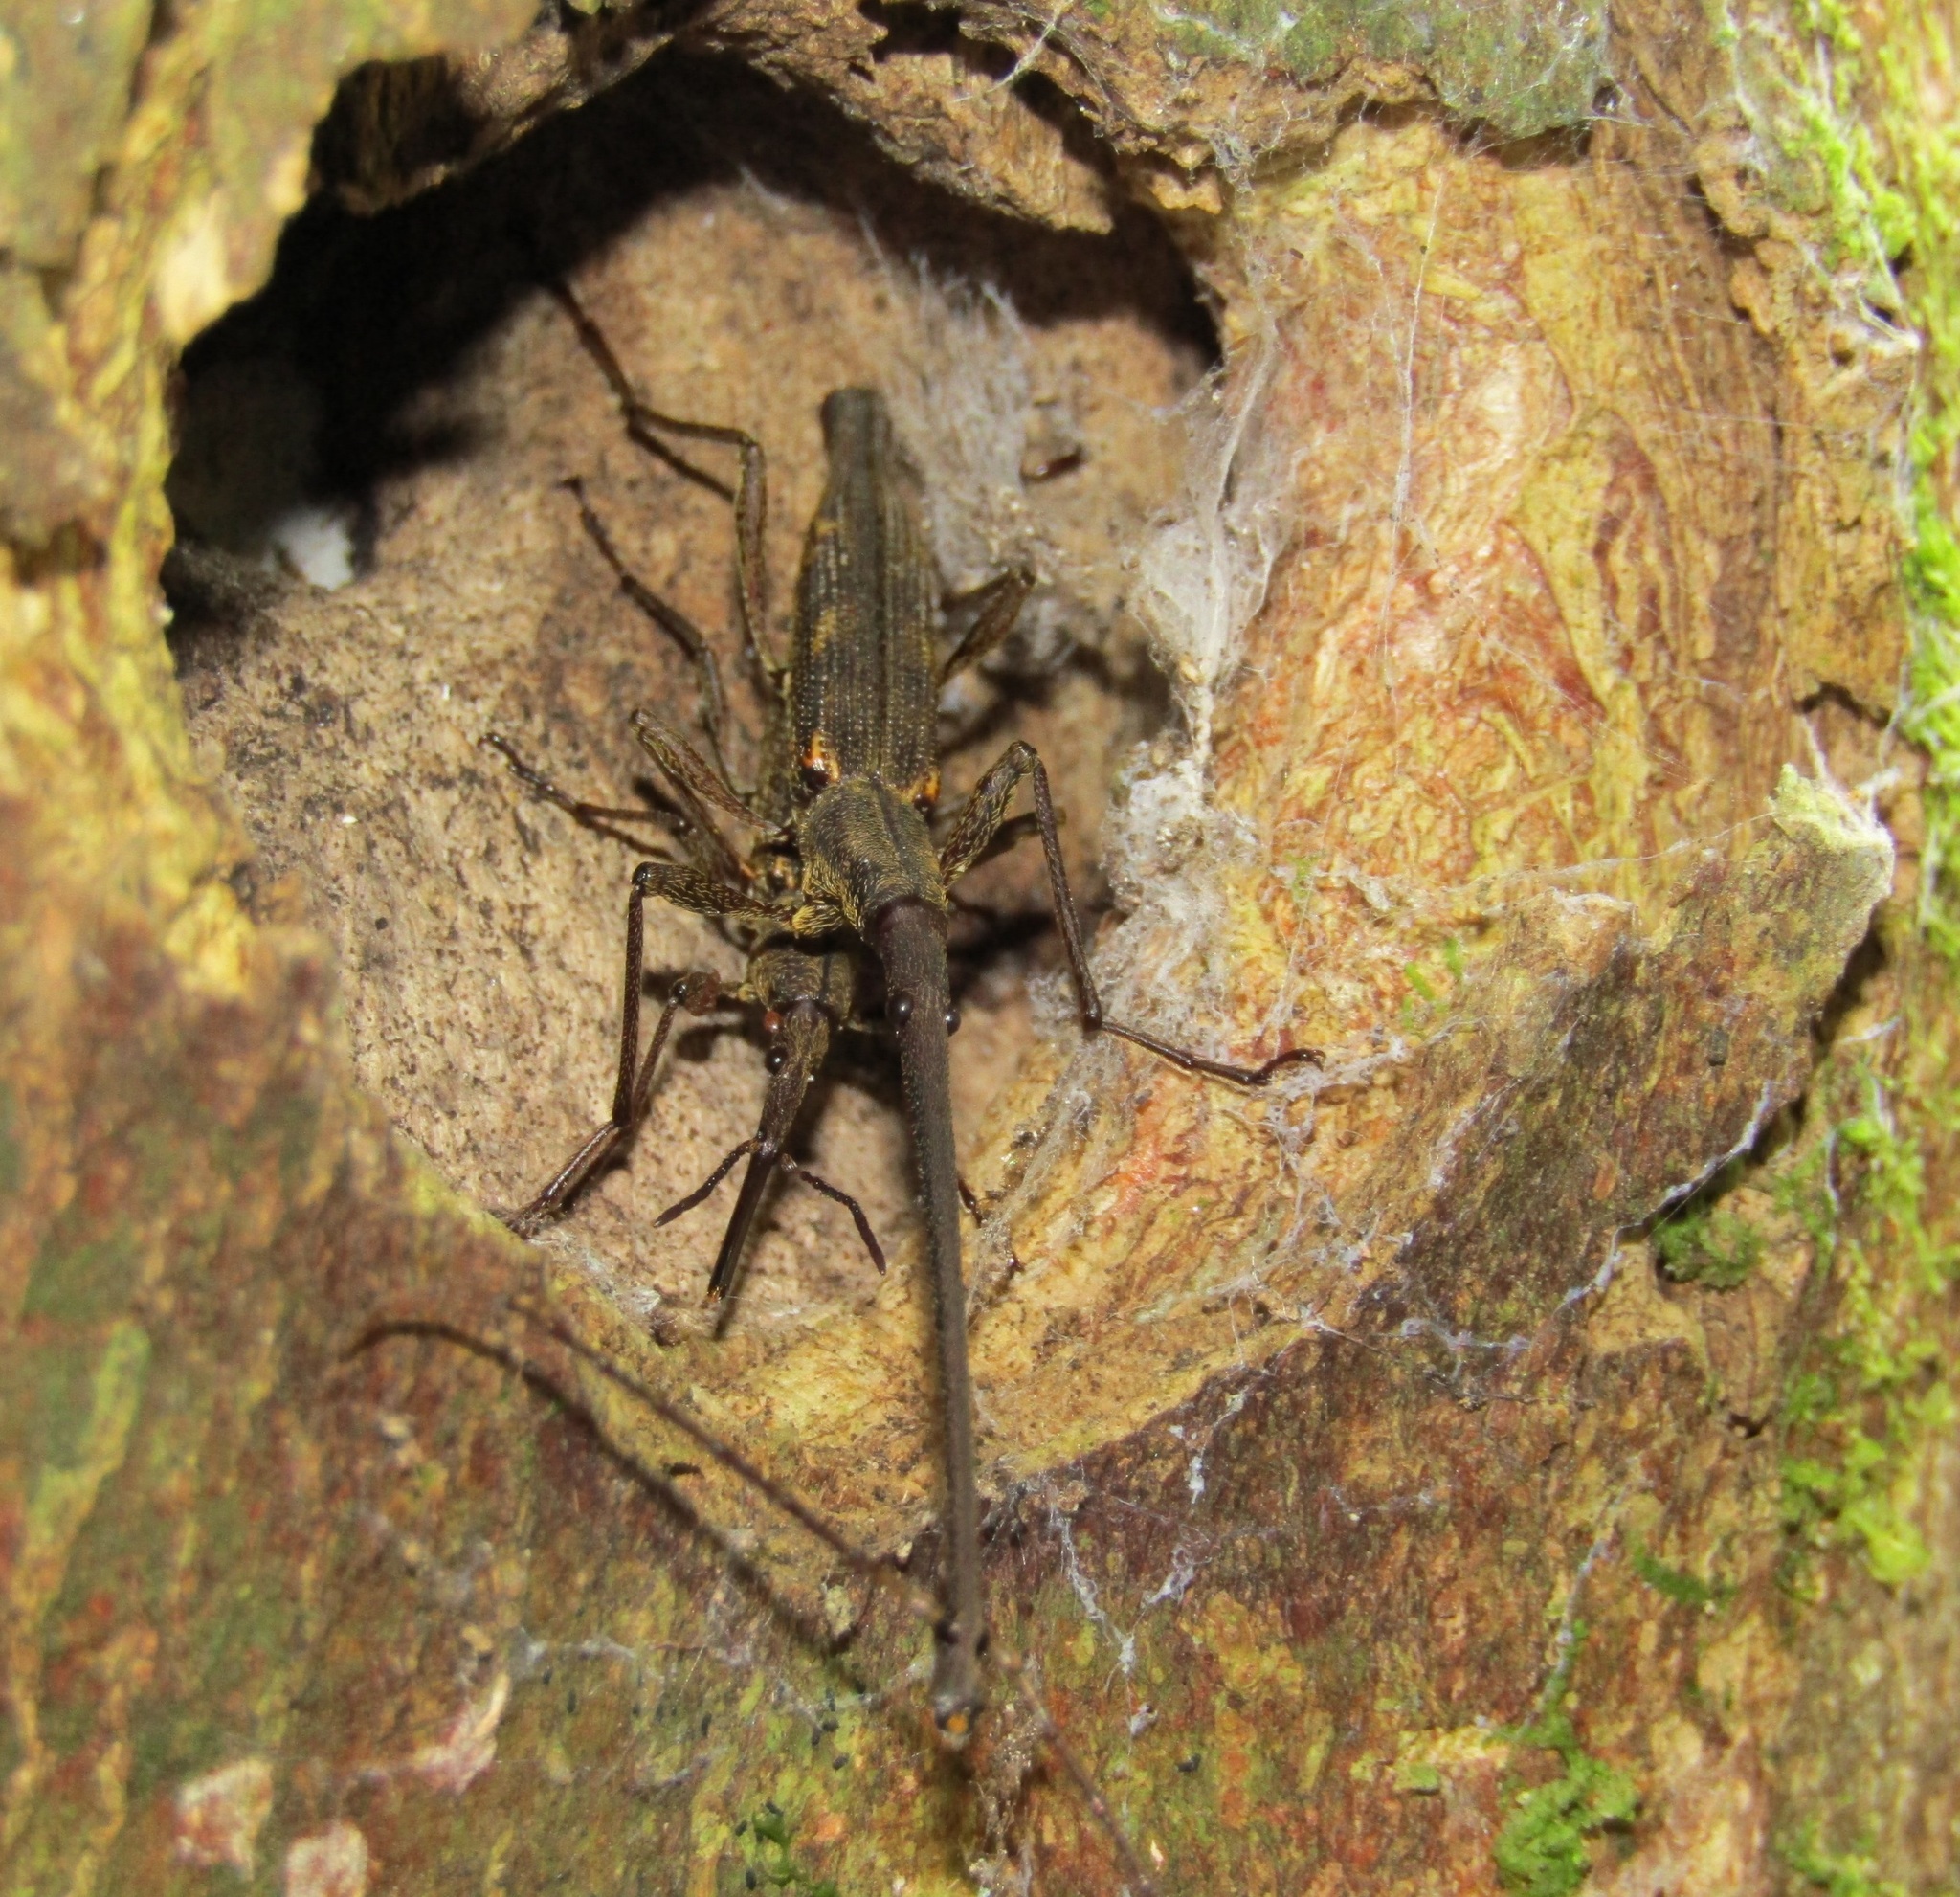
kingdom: Animalia
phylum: Arthropoda
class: Insecta
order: Coleoptera
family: Brentidae
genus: Lasiorhynchus
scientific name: Lasiorhynchus barbicornis
